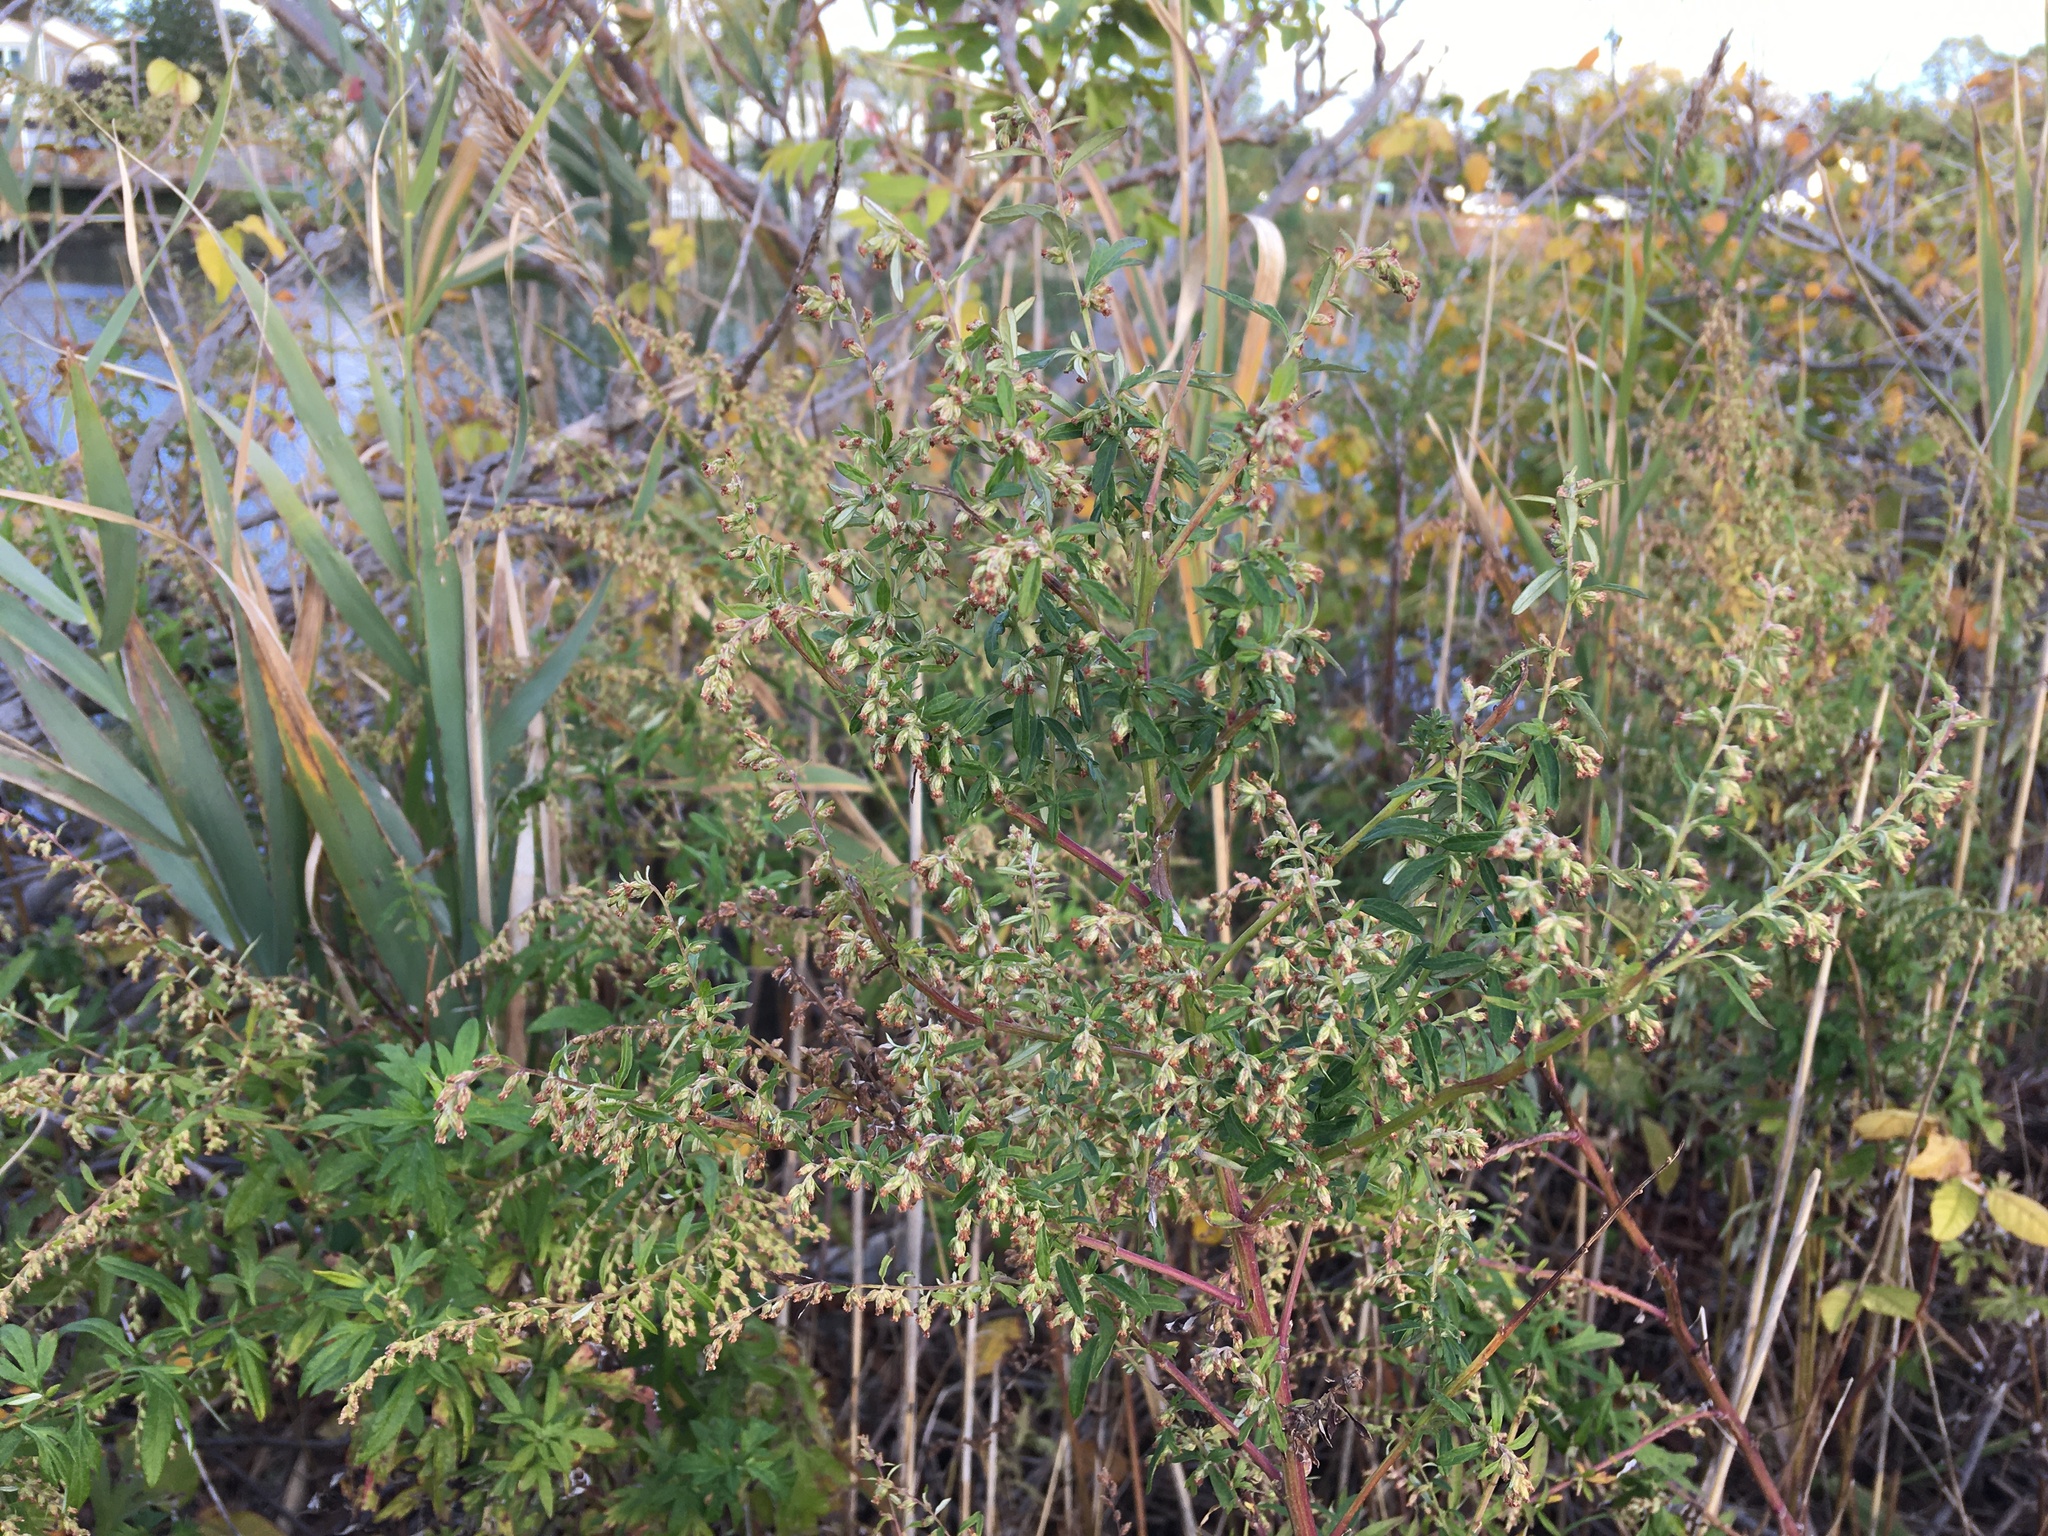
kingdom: Plantae
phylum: Tracheophyta
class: Magnoliopsida
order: Asterales
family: Asteraceae
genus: Artemisia
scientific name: Artemisia vulgaris
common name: Mugwort
